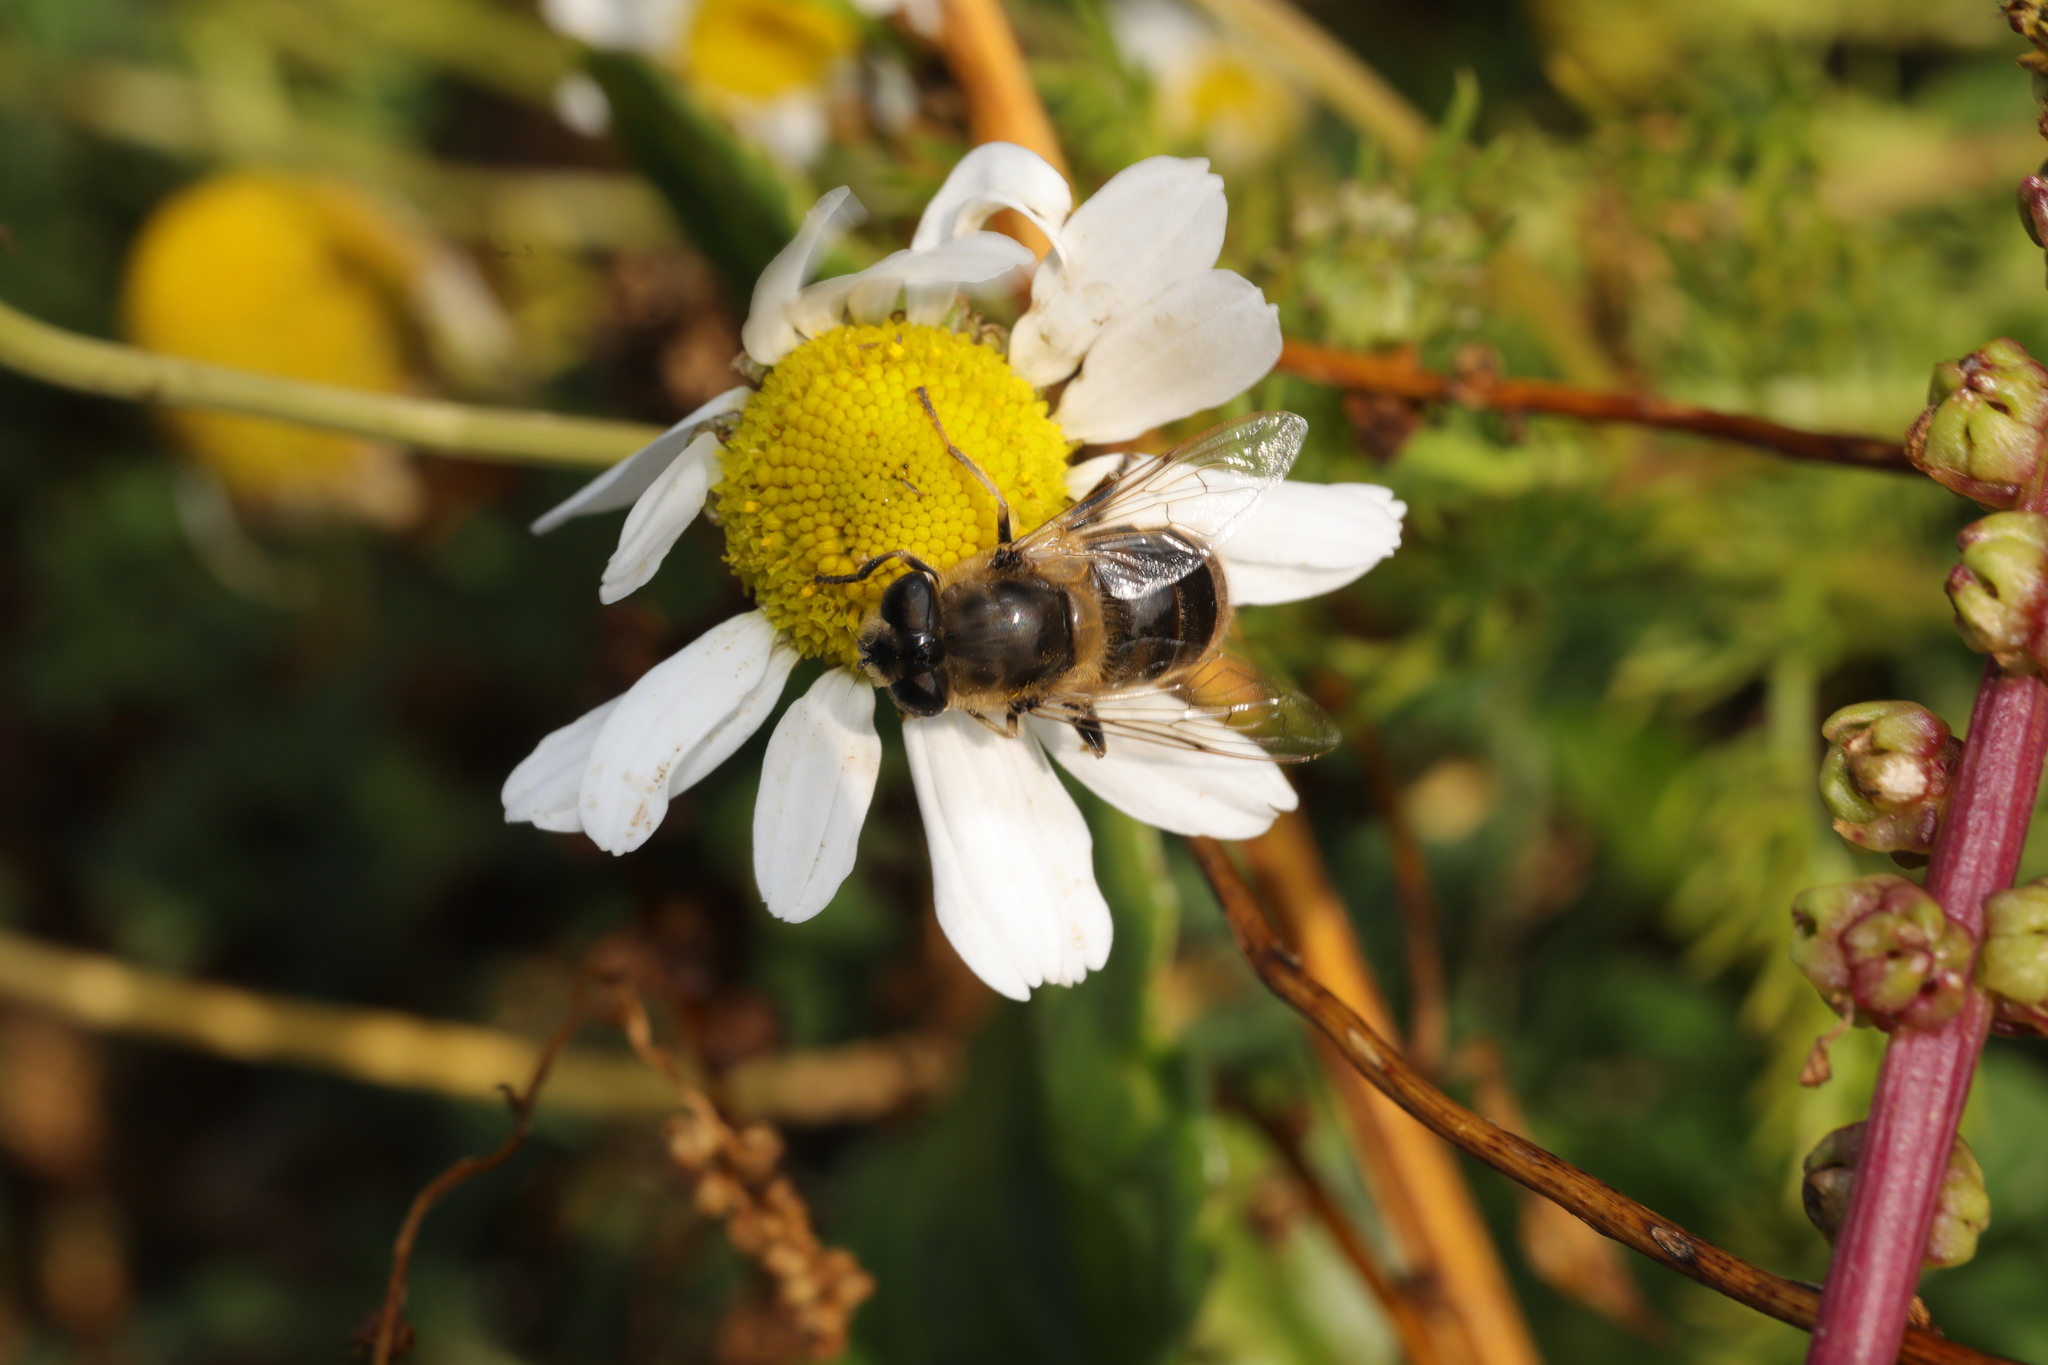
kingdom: Animalia
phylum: Arthropoda
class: Insecta
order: Diptera
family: Syrphidae
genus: Eristalis
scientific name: Eristalis tenax
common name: Drone fly
